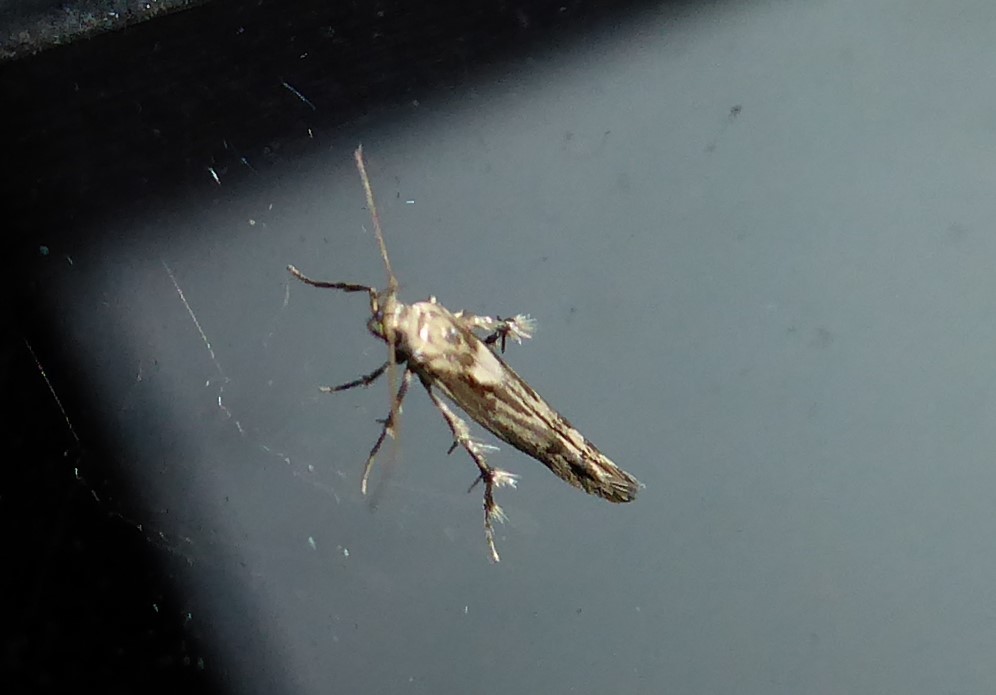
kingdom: Animalia
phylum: Arthropoda
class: Insecta
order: Lepidoptera
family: Stathmopodidae
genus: Stathmopoda
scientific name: Stathmopoda plumbiflua
